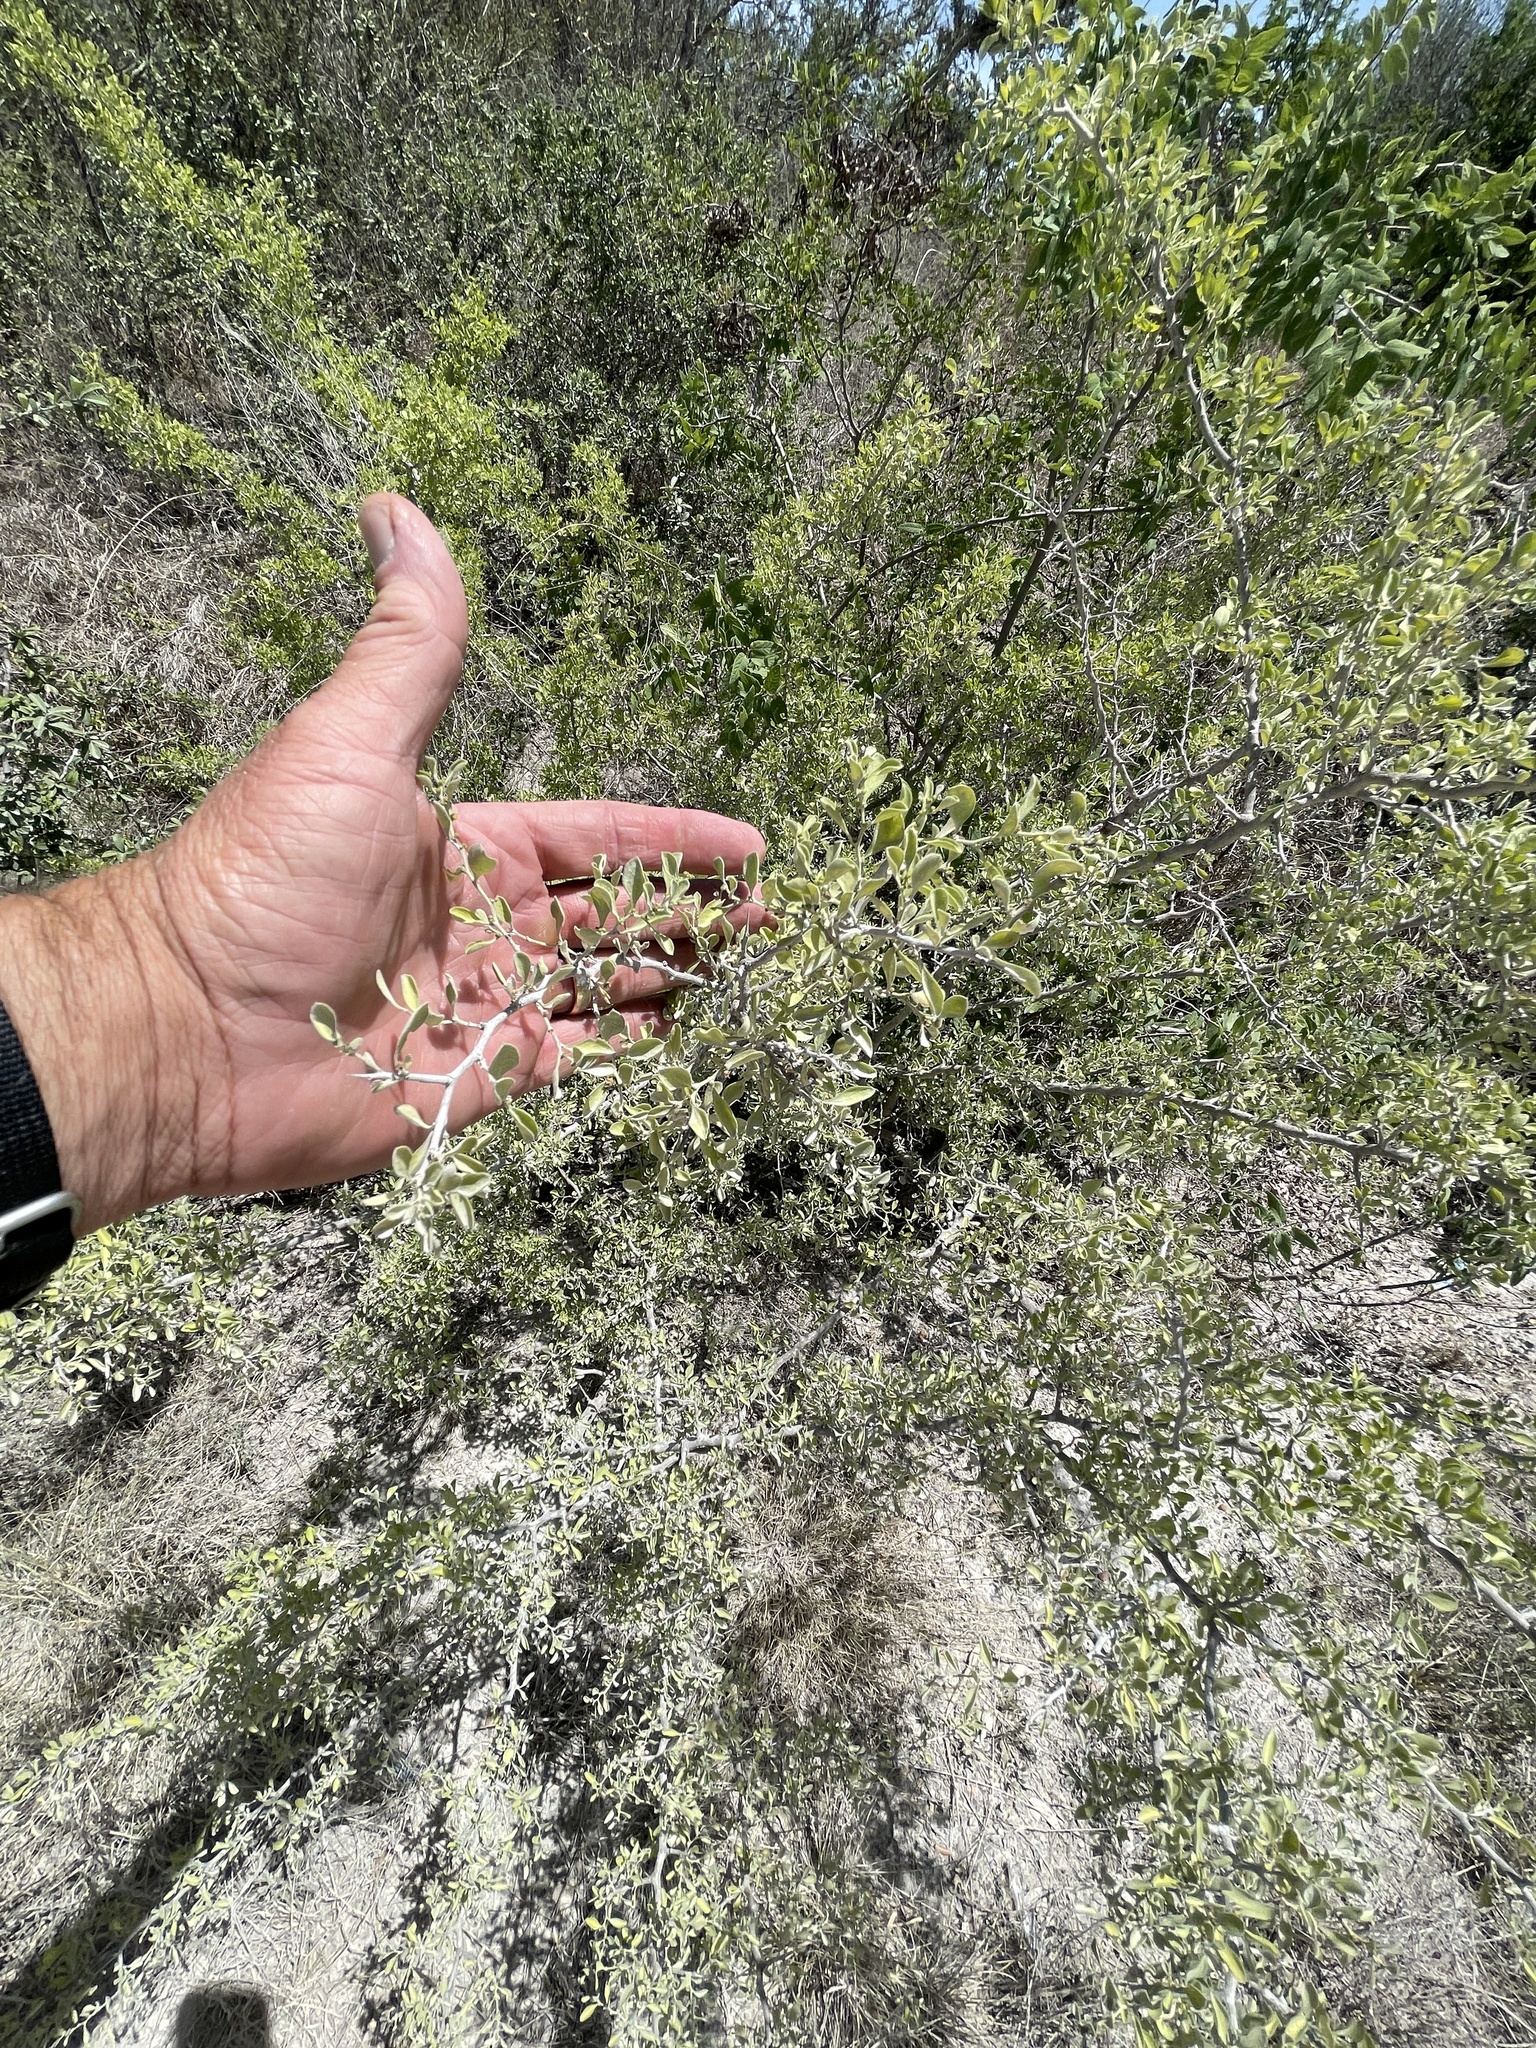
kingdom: Plantae
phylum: Tracheophyta
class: Magnoliopsida
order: Rosales
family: Rhamnaceae
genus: Condalia
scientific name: Condalia hookeri
